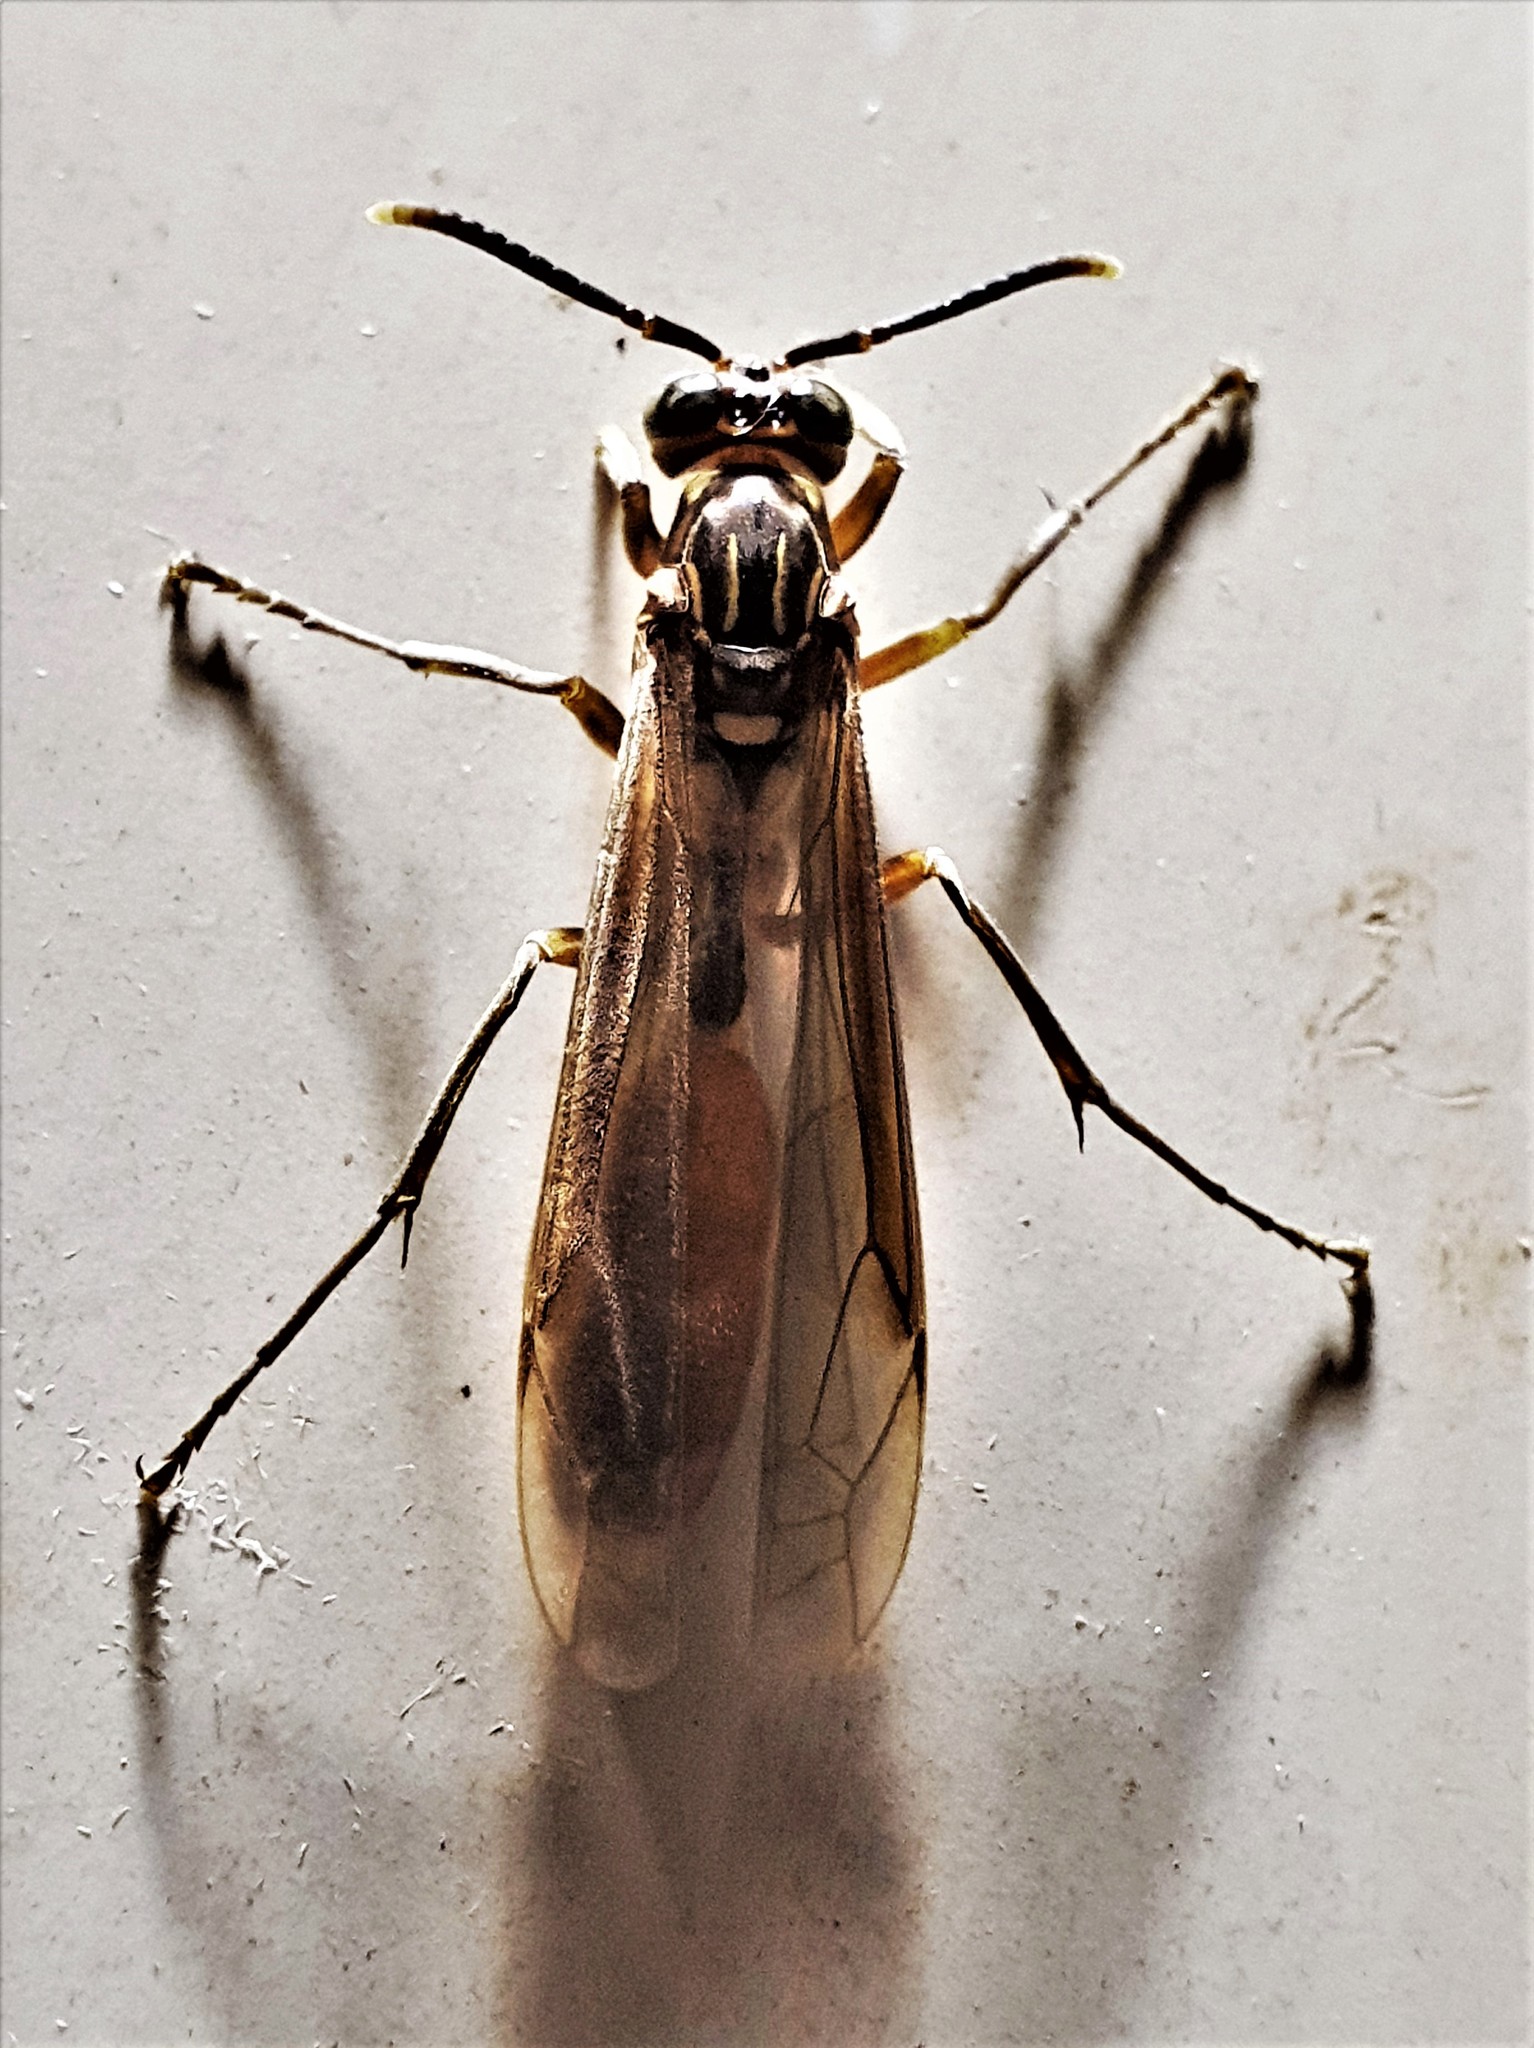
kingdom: Animalia
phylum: Arthropoda
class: Insecta
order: Hymenoptera
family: Vespidae
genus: Apoica
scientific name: Apoica pallida
